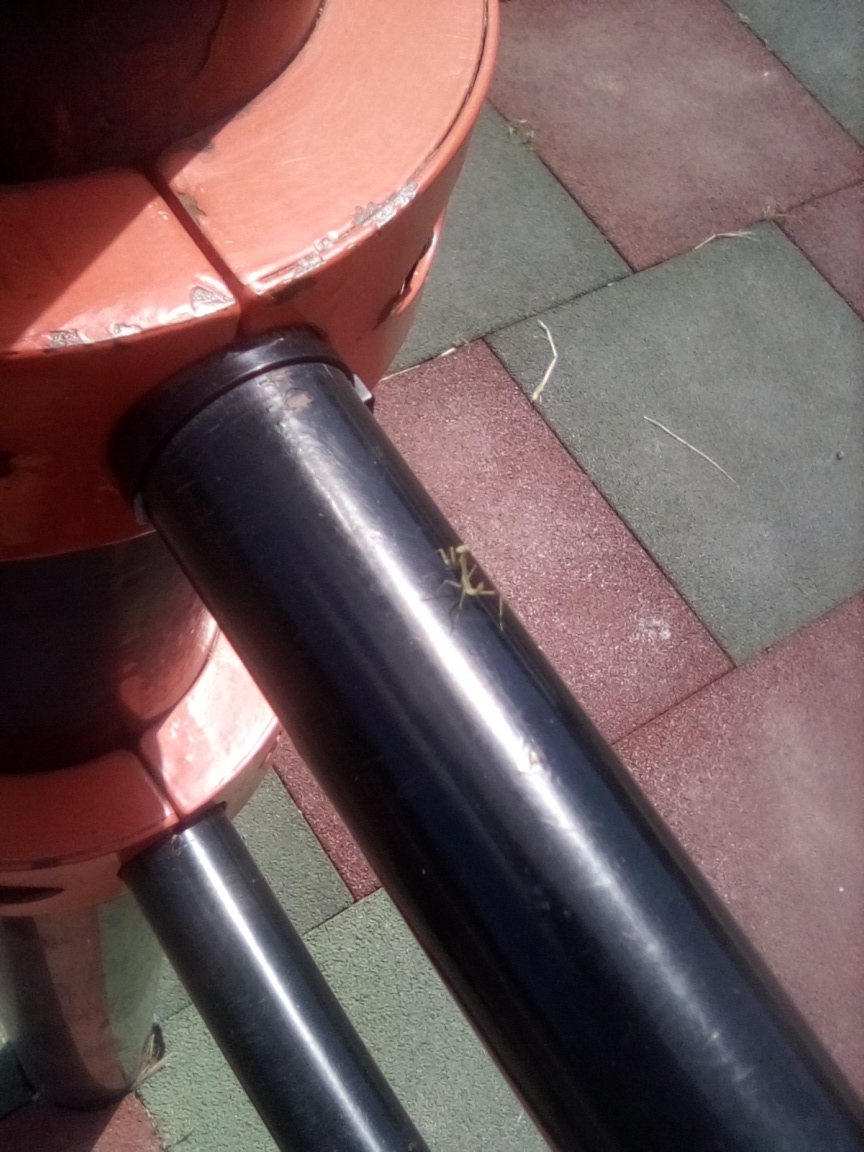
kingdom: Animalia
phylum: Arthropoda
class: Insecta
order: Mantodea
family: Mantidae
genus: Hierodula
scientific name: Hierodula transcaucasica
